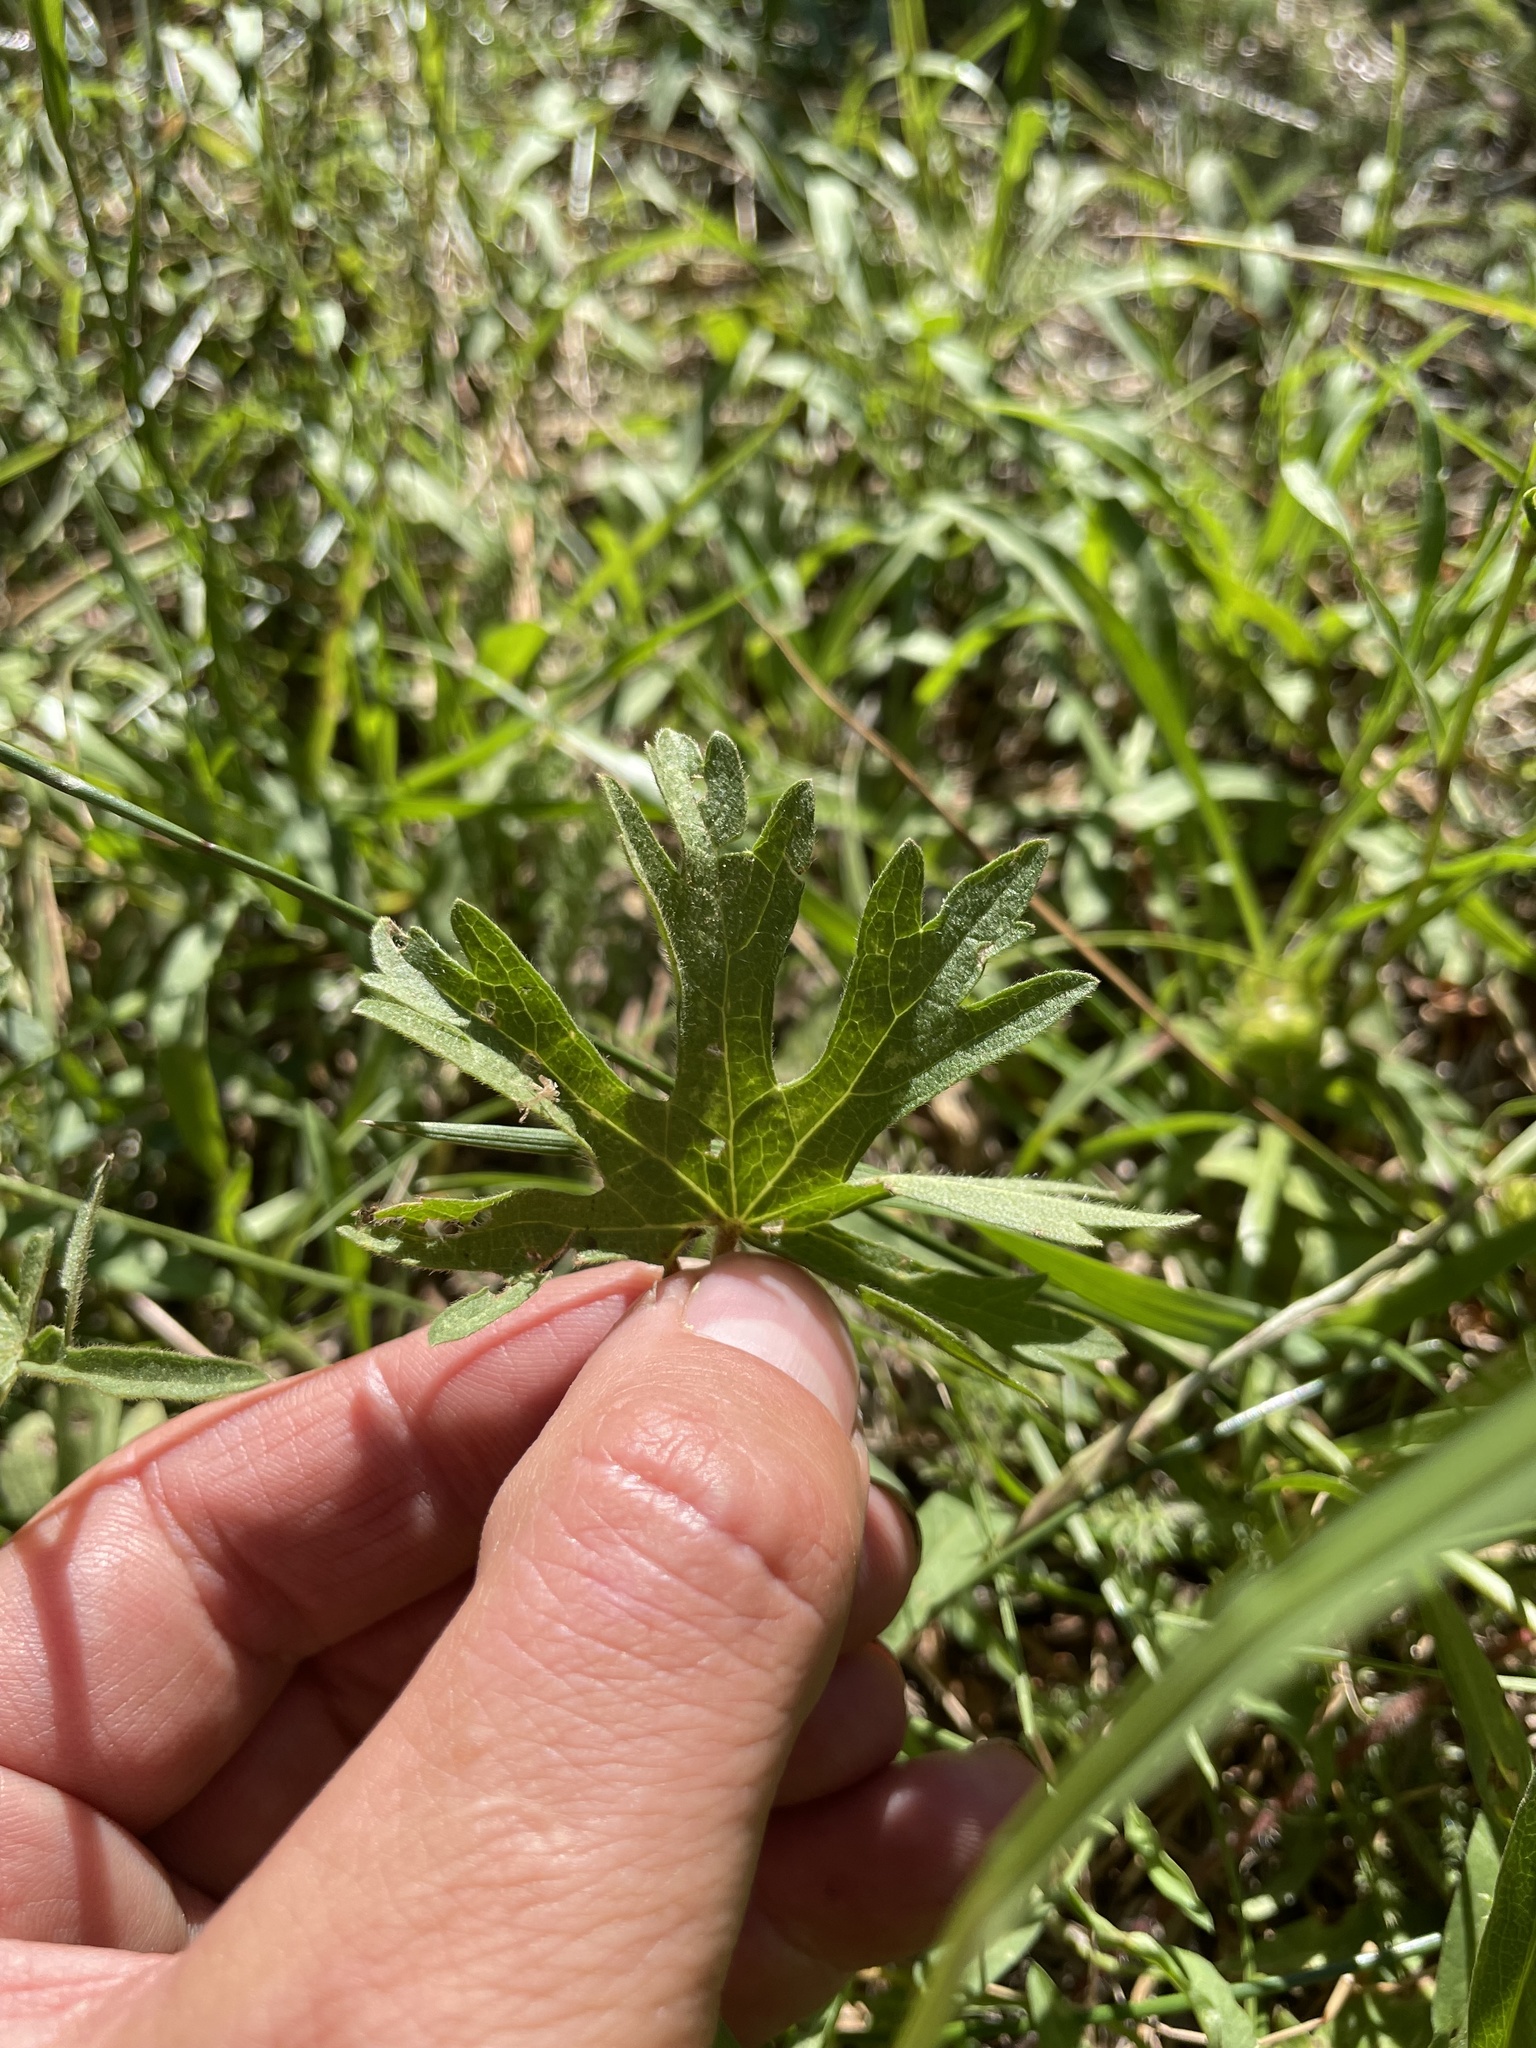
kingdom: Plantae
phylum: Tracheophyta
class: Magnoliopsida
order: Malvales
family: Malvaceae
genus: Sidalcea
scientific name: Sidalcea oregana
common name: Oregon checker-mallow
